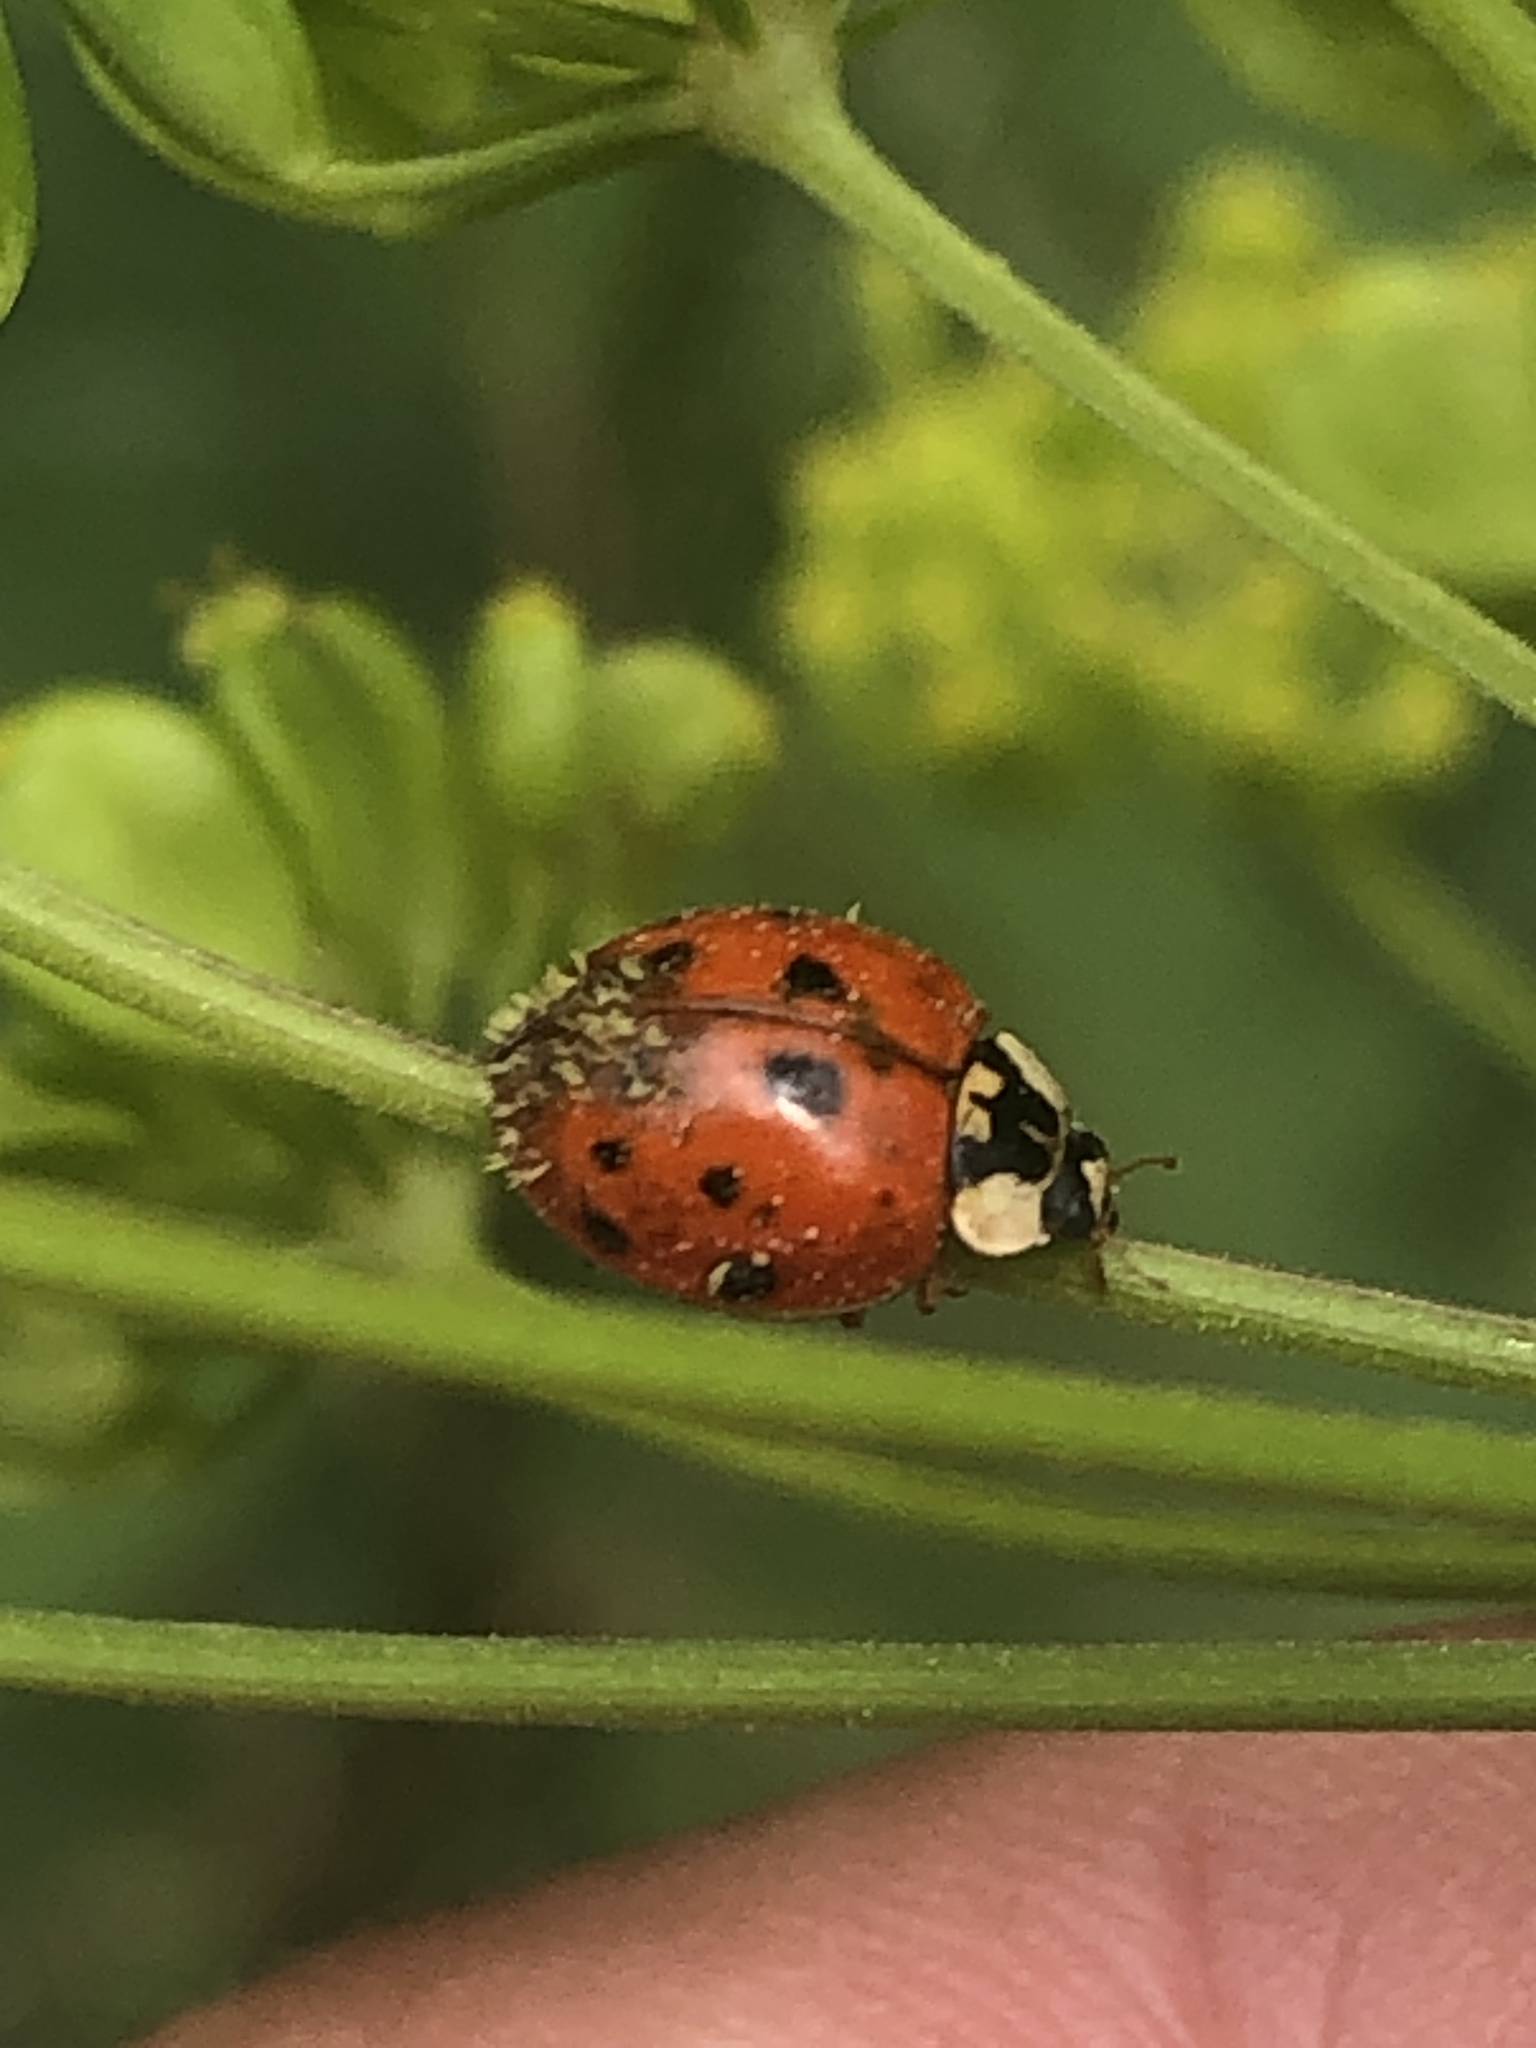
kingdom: Animalia
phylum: Arthropoda
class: Insecta
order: Coleoptera
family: Coccinellidae
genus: Harmonia
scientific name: Harmonia axyridis
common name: Harlequin ladybird
